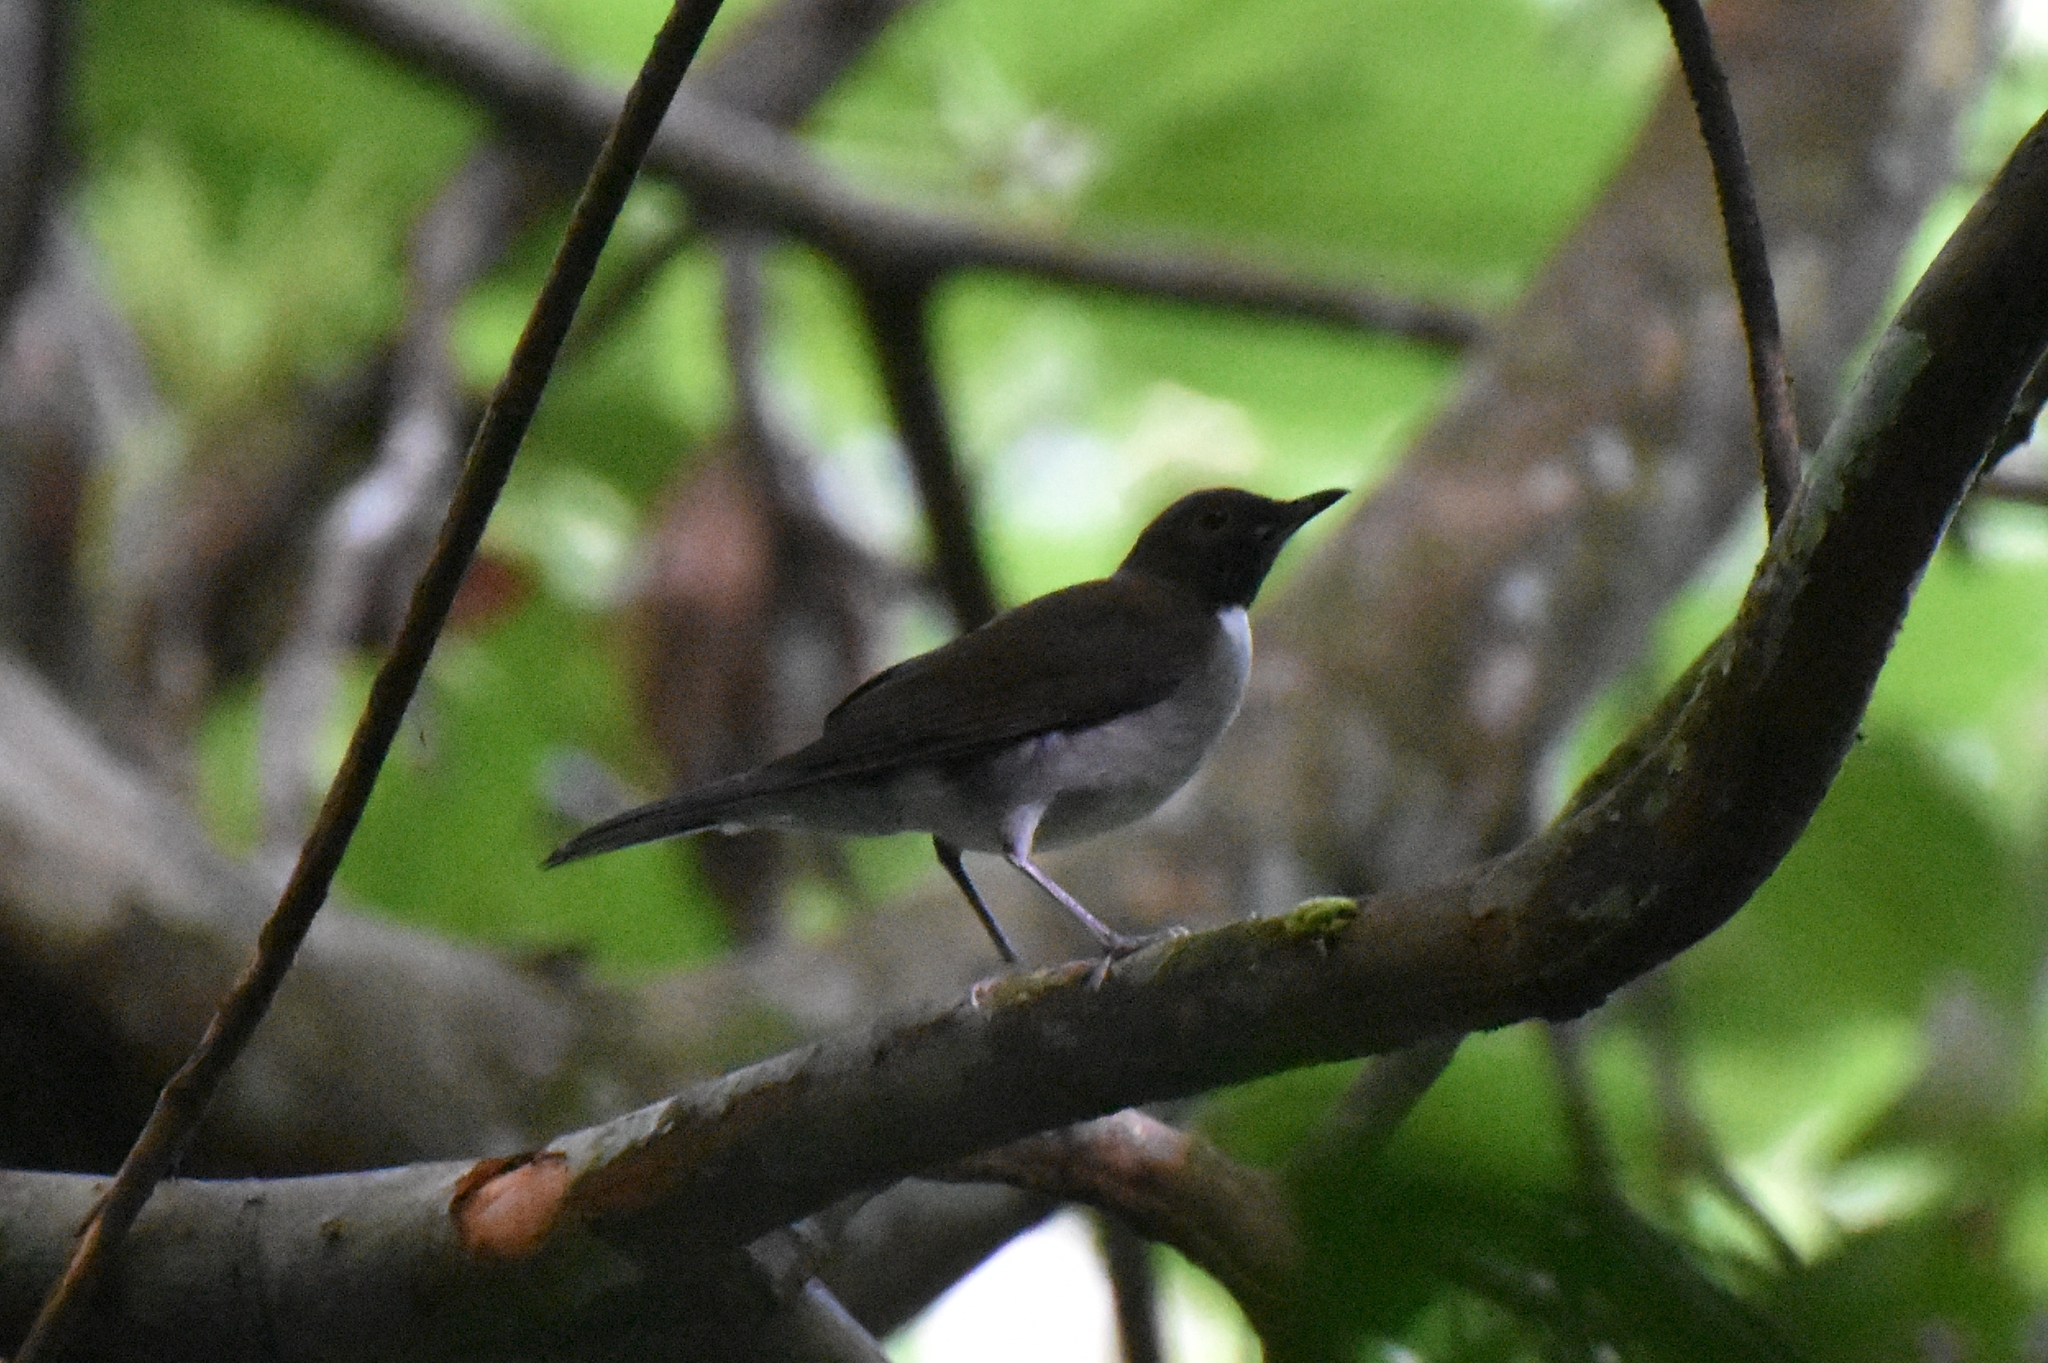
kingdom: Animalia
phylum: Chordata
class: Aves
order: Passeriformes
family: Turdidae
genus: Turdus
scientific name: Turdus albicollis
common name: White-necked thrush
